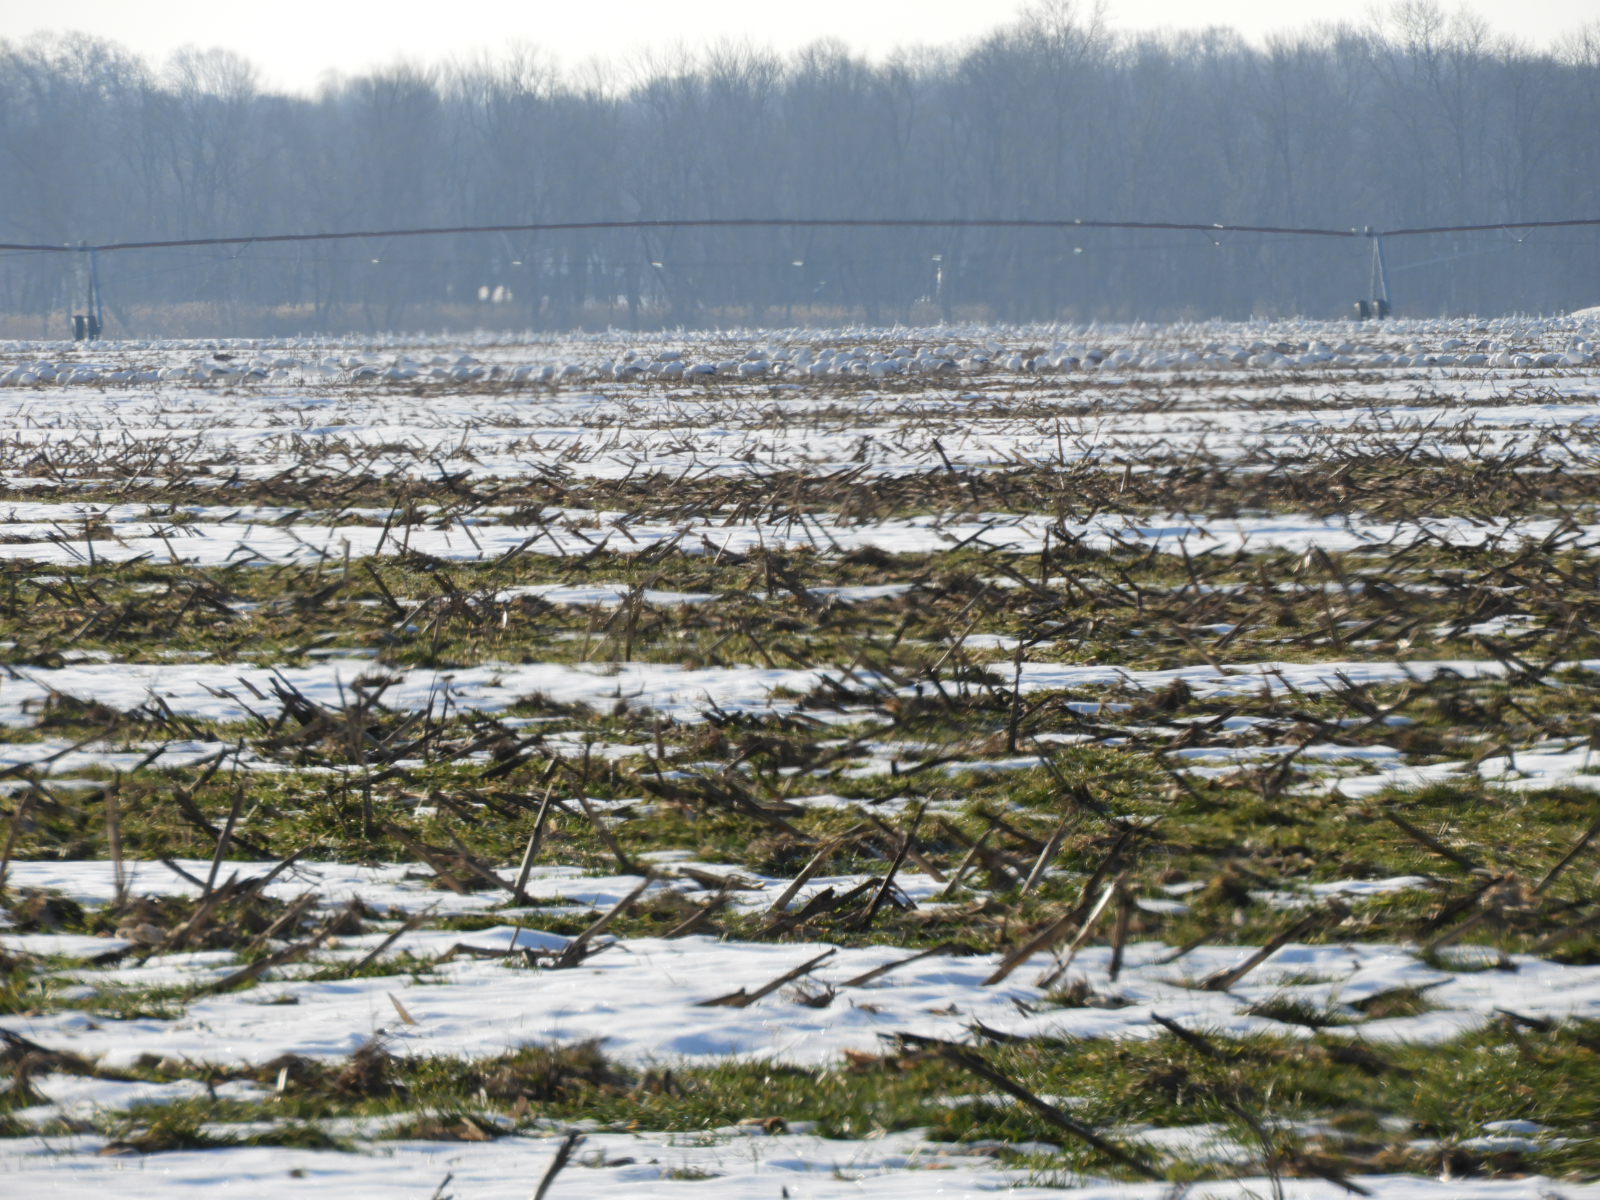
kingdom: Animalia
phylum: Chordata
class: Aves
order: Anseriformes
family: Anatidae
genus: Anser
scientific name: Anser caerulescens
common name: Snow goose
